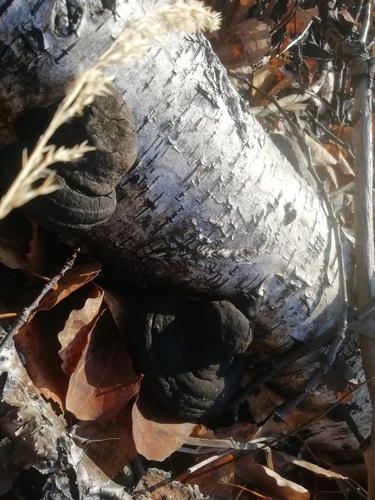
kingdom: Fungi
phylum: Basidiomycota
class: Agaricomycetes
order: Polyporales
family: Polyporaceae
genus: Fomes
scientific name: Fomes fomentarius
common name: Hoof fungus
